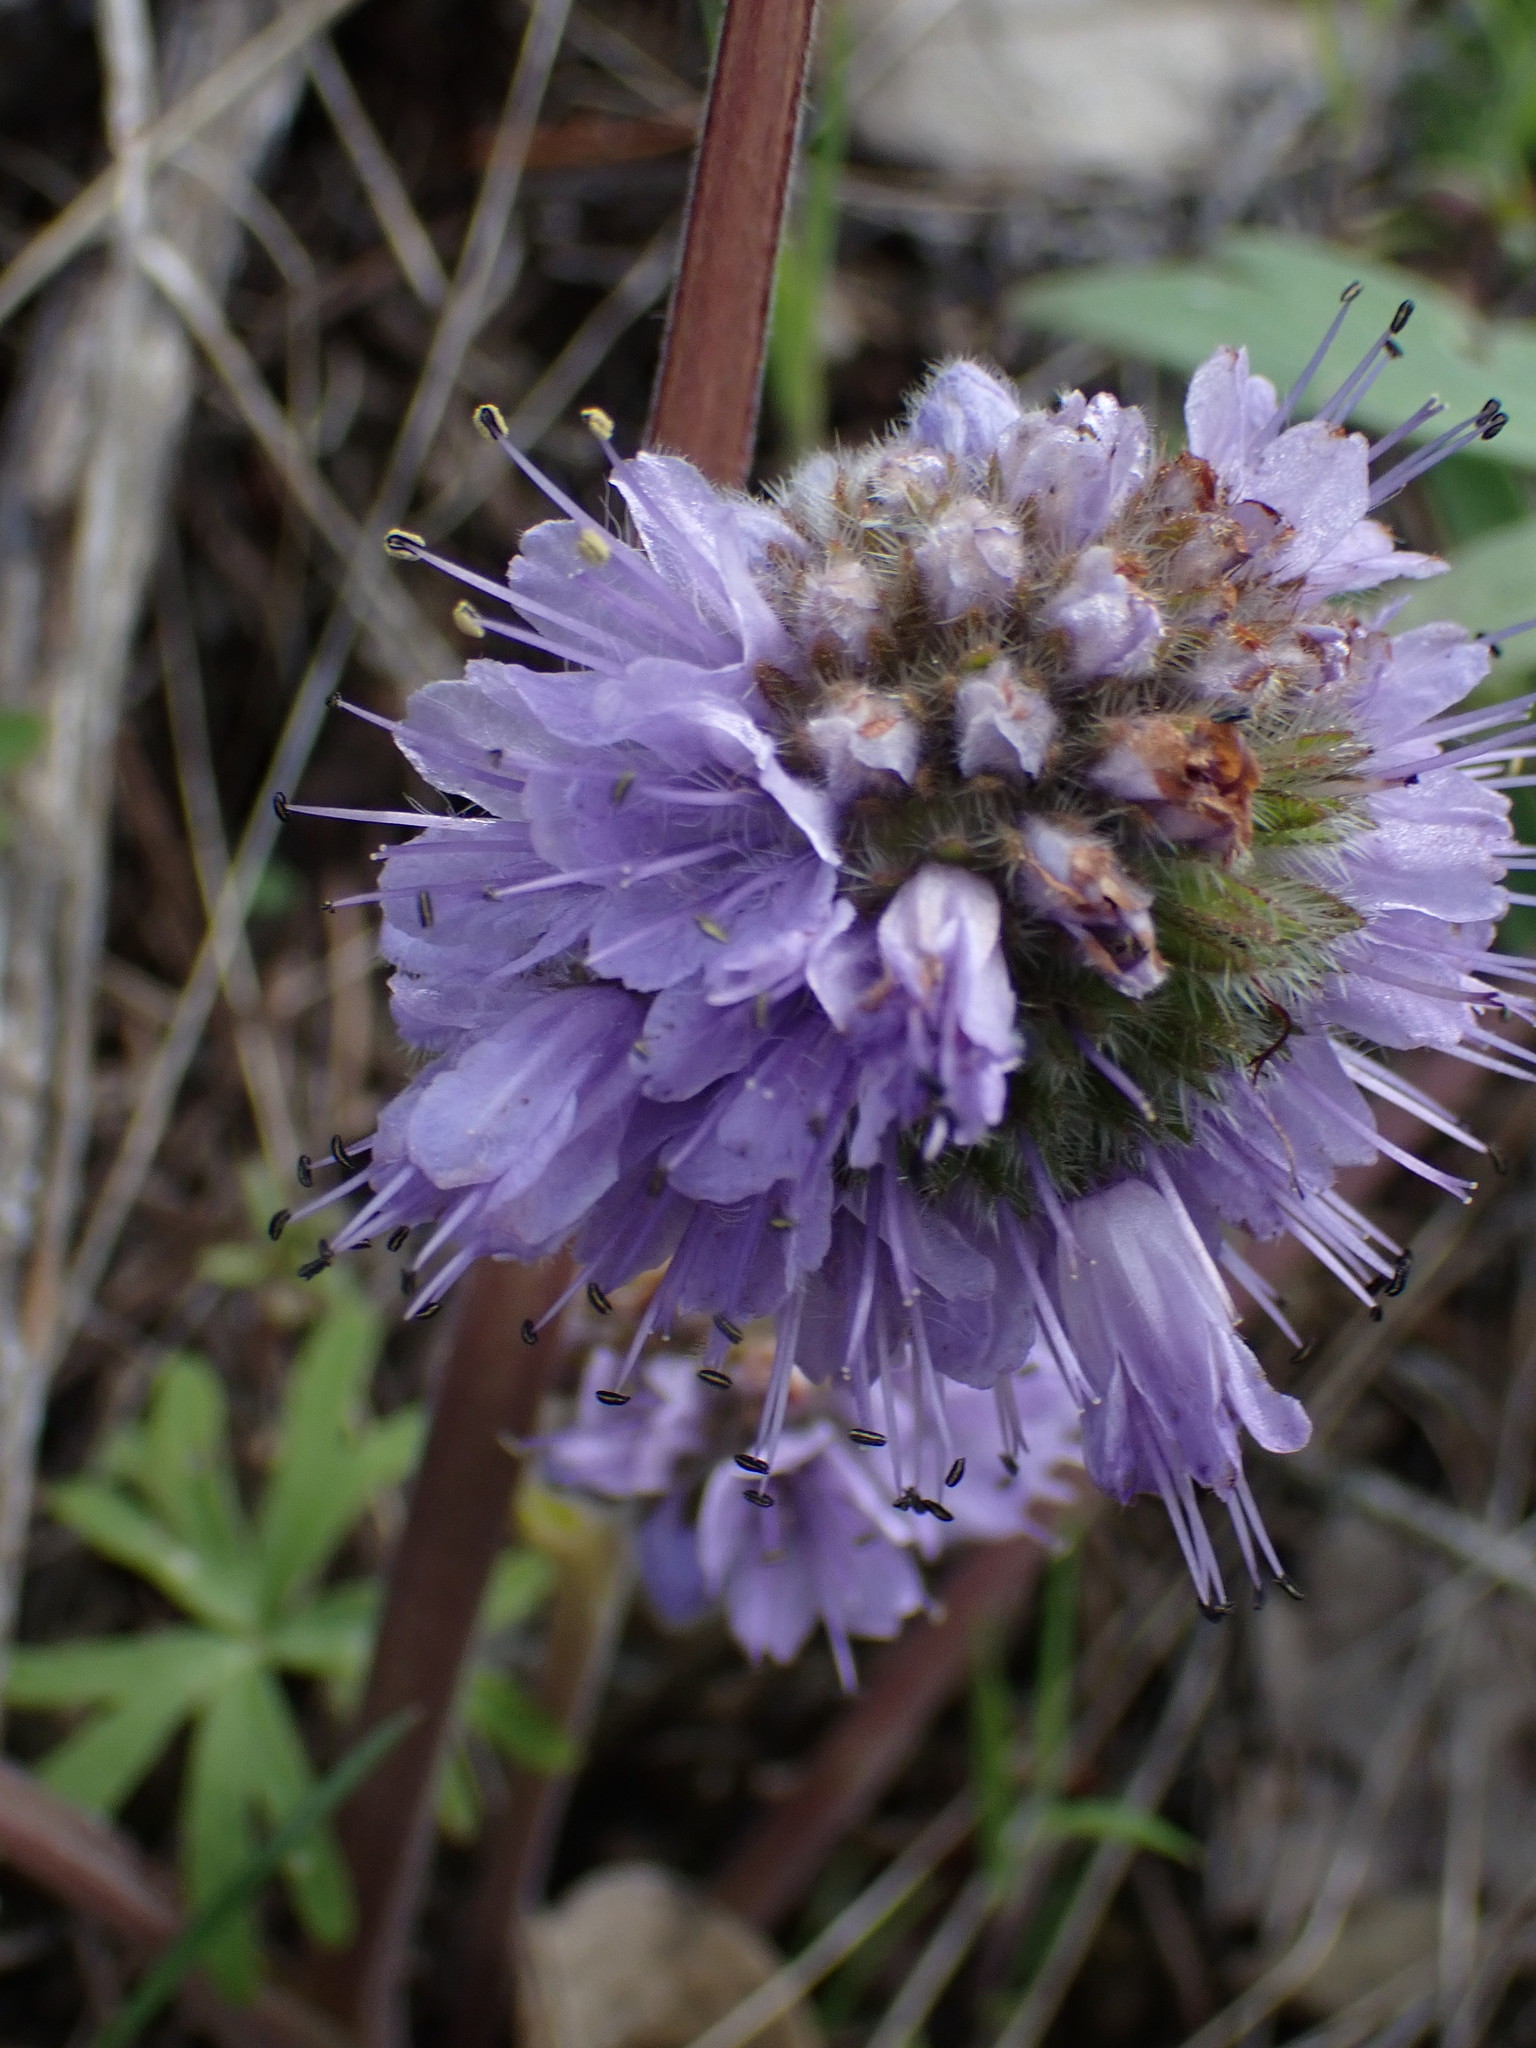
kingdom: Plantae
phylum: Tracheophyta
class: Magnoliopsida
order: Boraginales
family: Hydrophyllaceae
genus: Hydrophyllum
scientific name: Hydrophyllum capitatum
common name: Woollen-breeches
